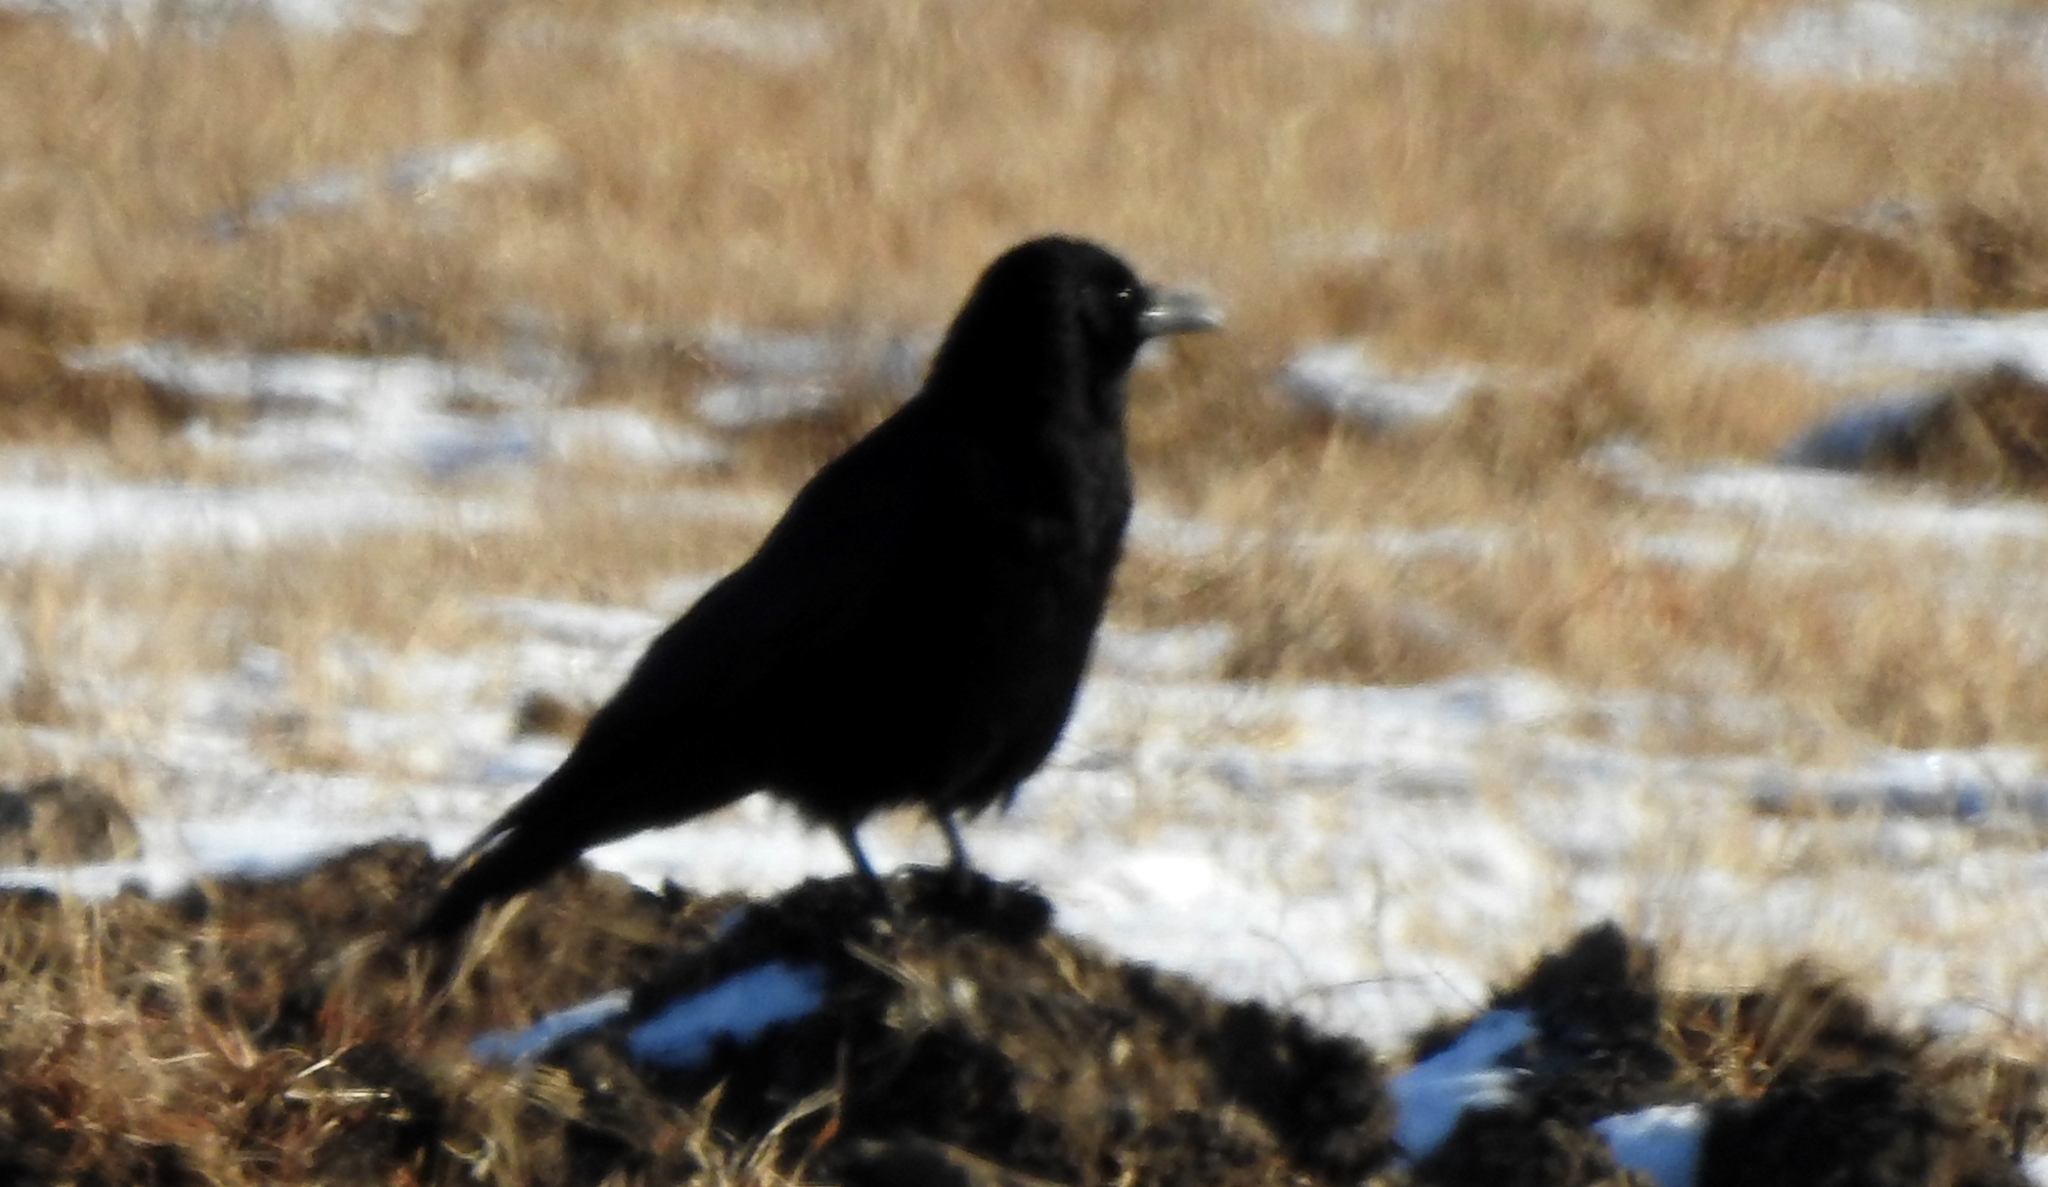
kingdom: Animalia
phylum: Chordata
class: Aves
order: Passeriformes
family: Corvidae
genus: Corvus
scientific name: Corvus corone
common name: Carrion crow
